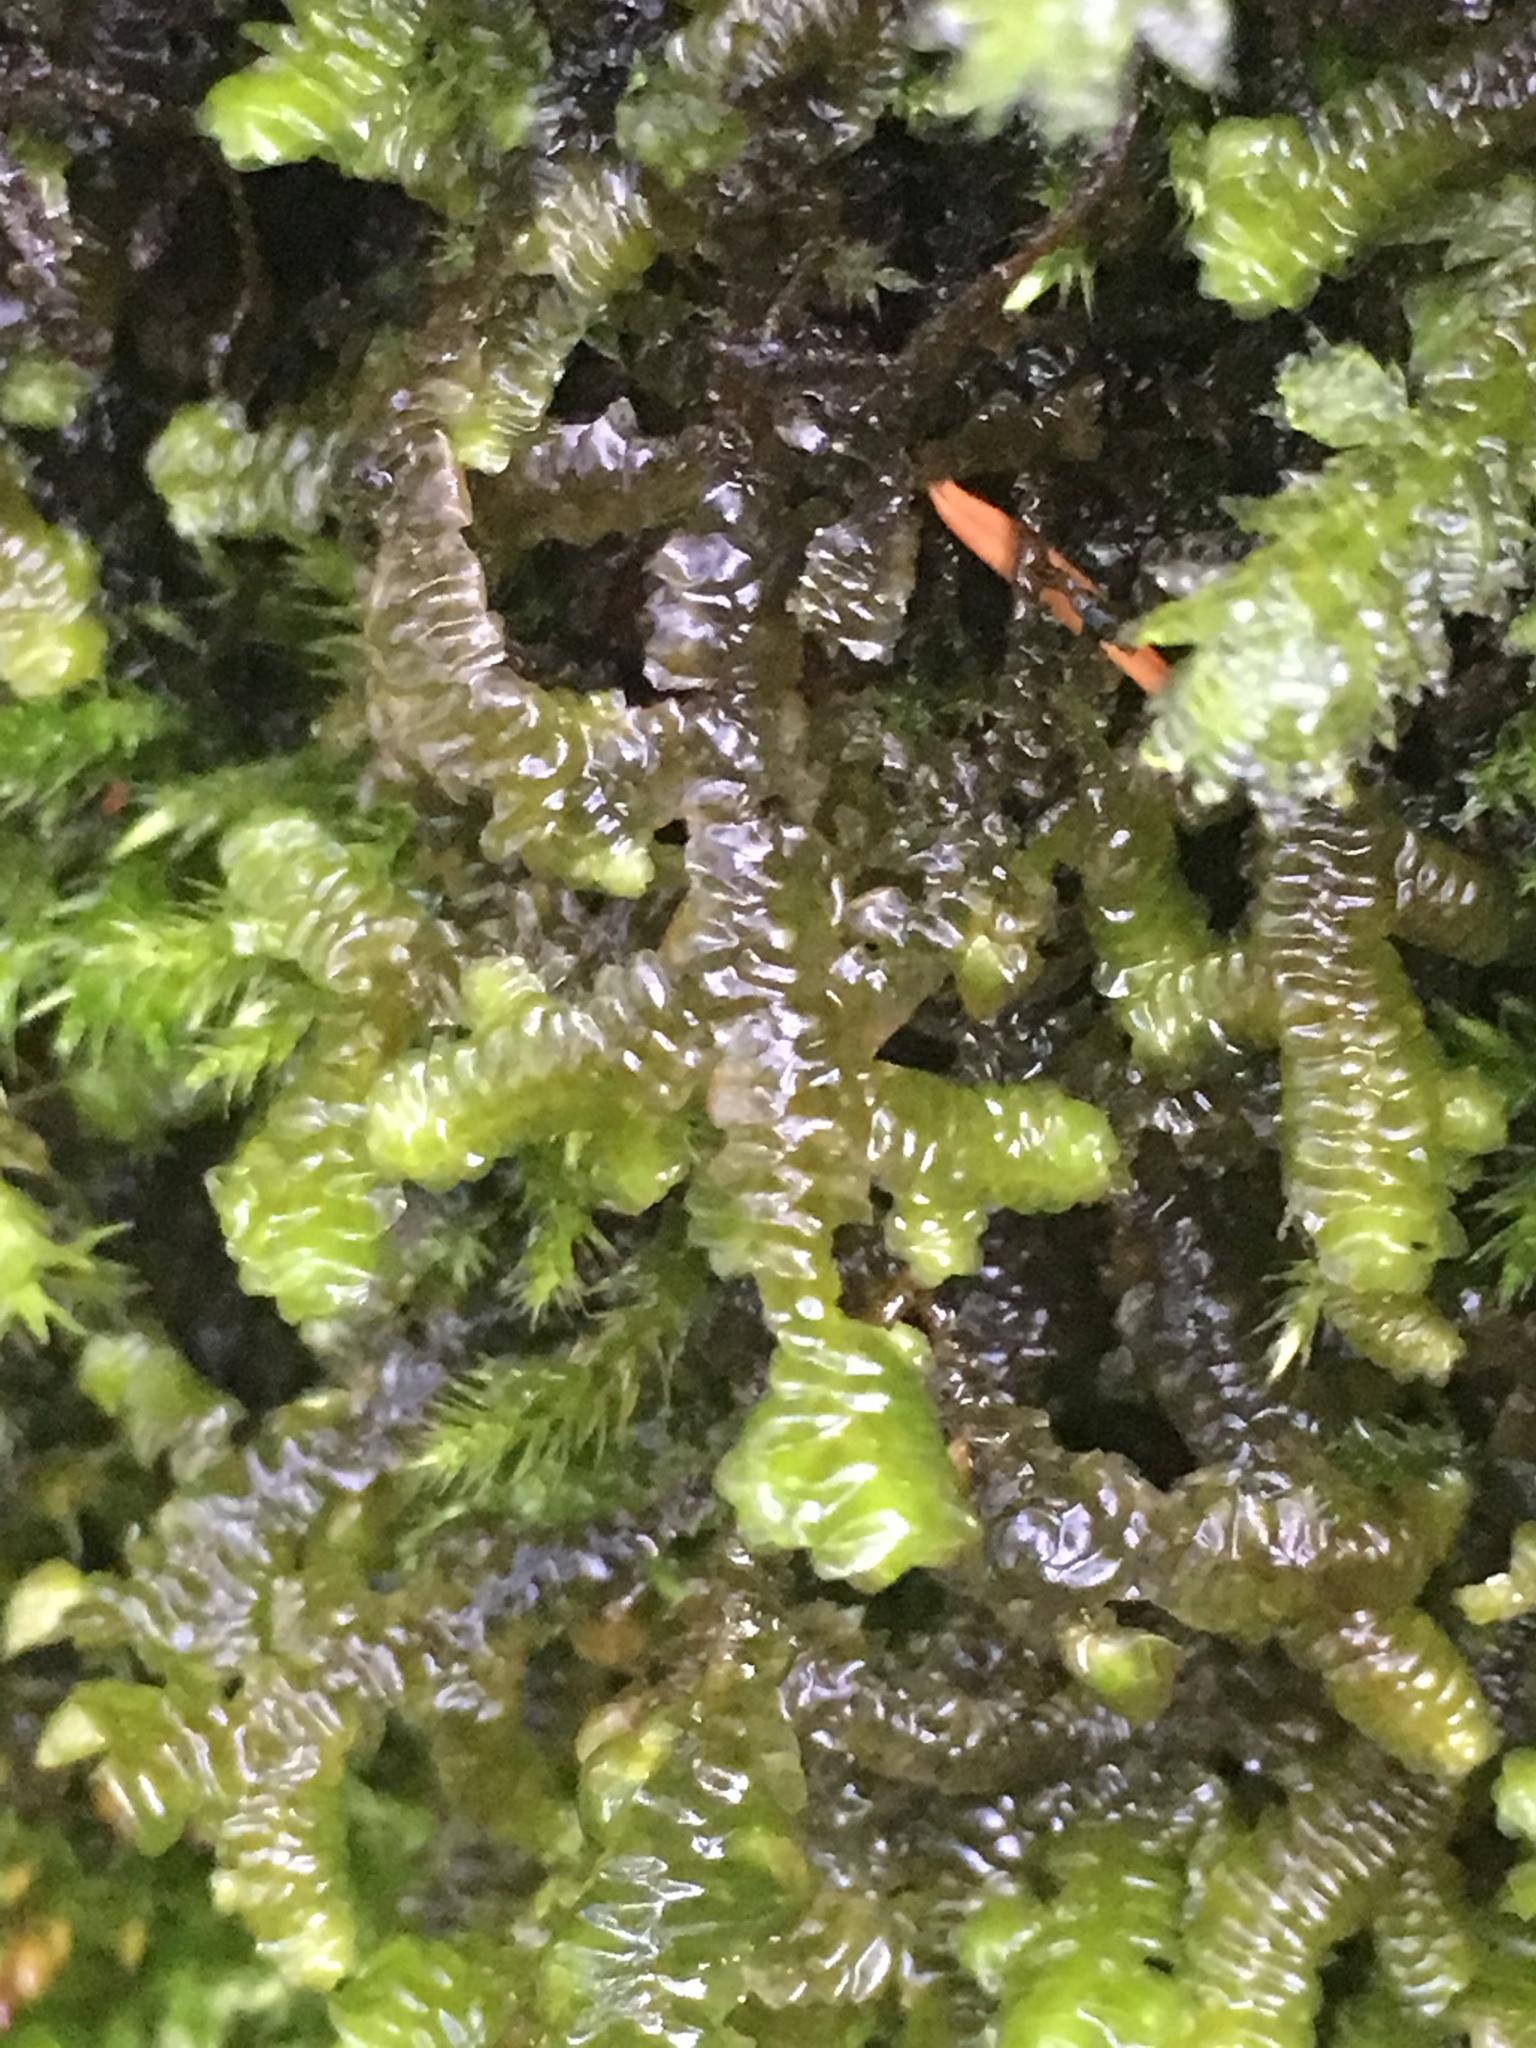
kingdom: Plantae
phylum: Marchantiophyta
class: Jungermanniopsida
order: Porellales
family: Porellaceae
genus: Porella
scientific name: Porella navicularis
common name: Tree ruffle liverwort
